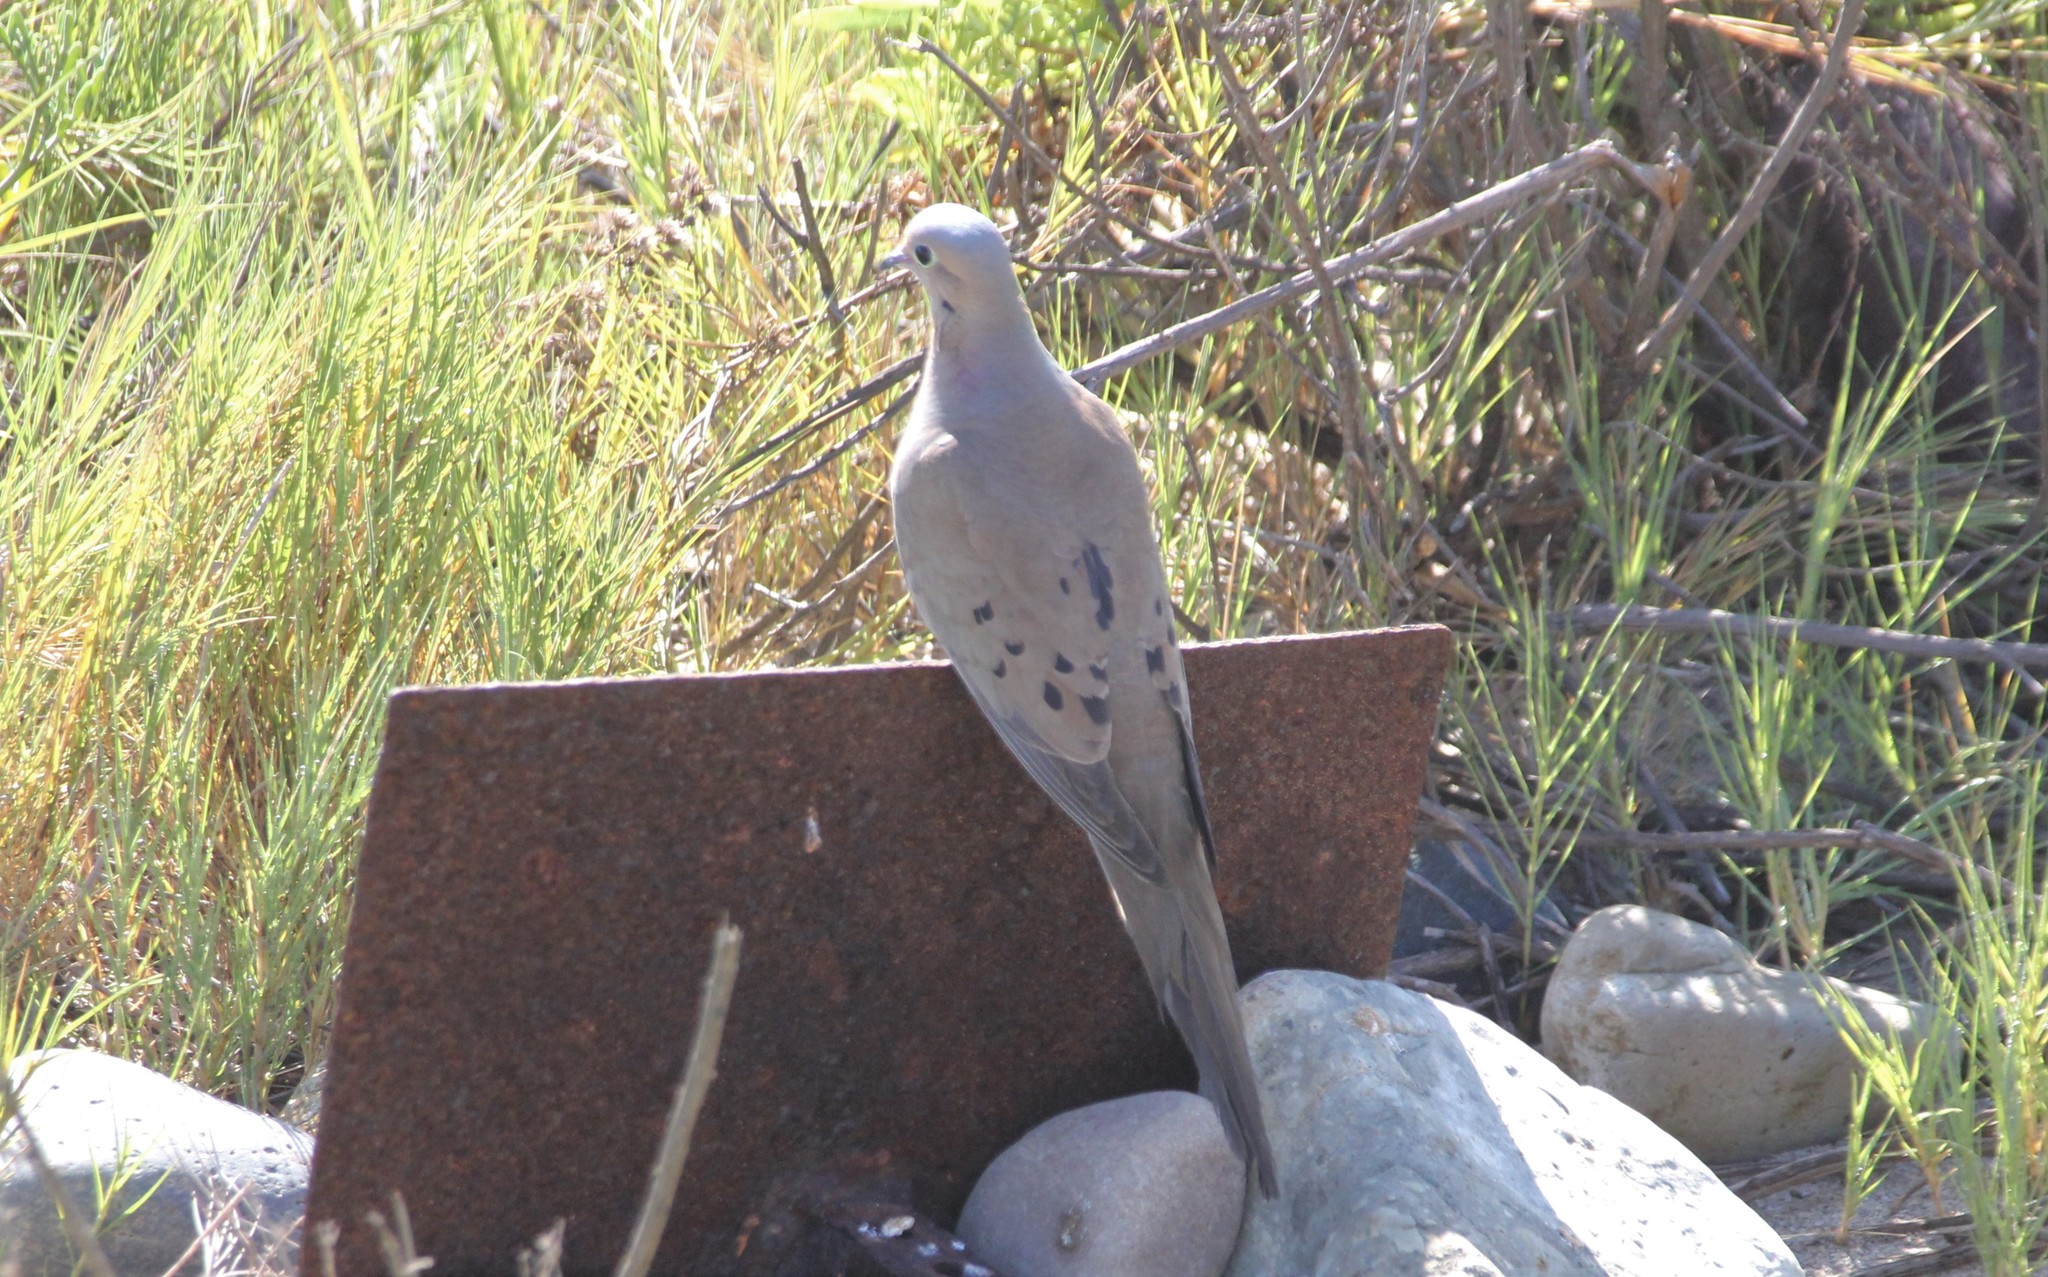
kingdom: Animalia
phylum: Chordata
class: Aves
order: Columbiformes
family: Columbidae
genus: Zenaida
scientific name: Zenaida macroura
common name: Mourning dove
